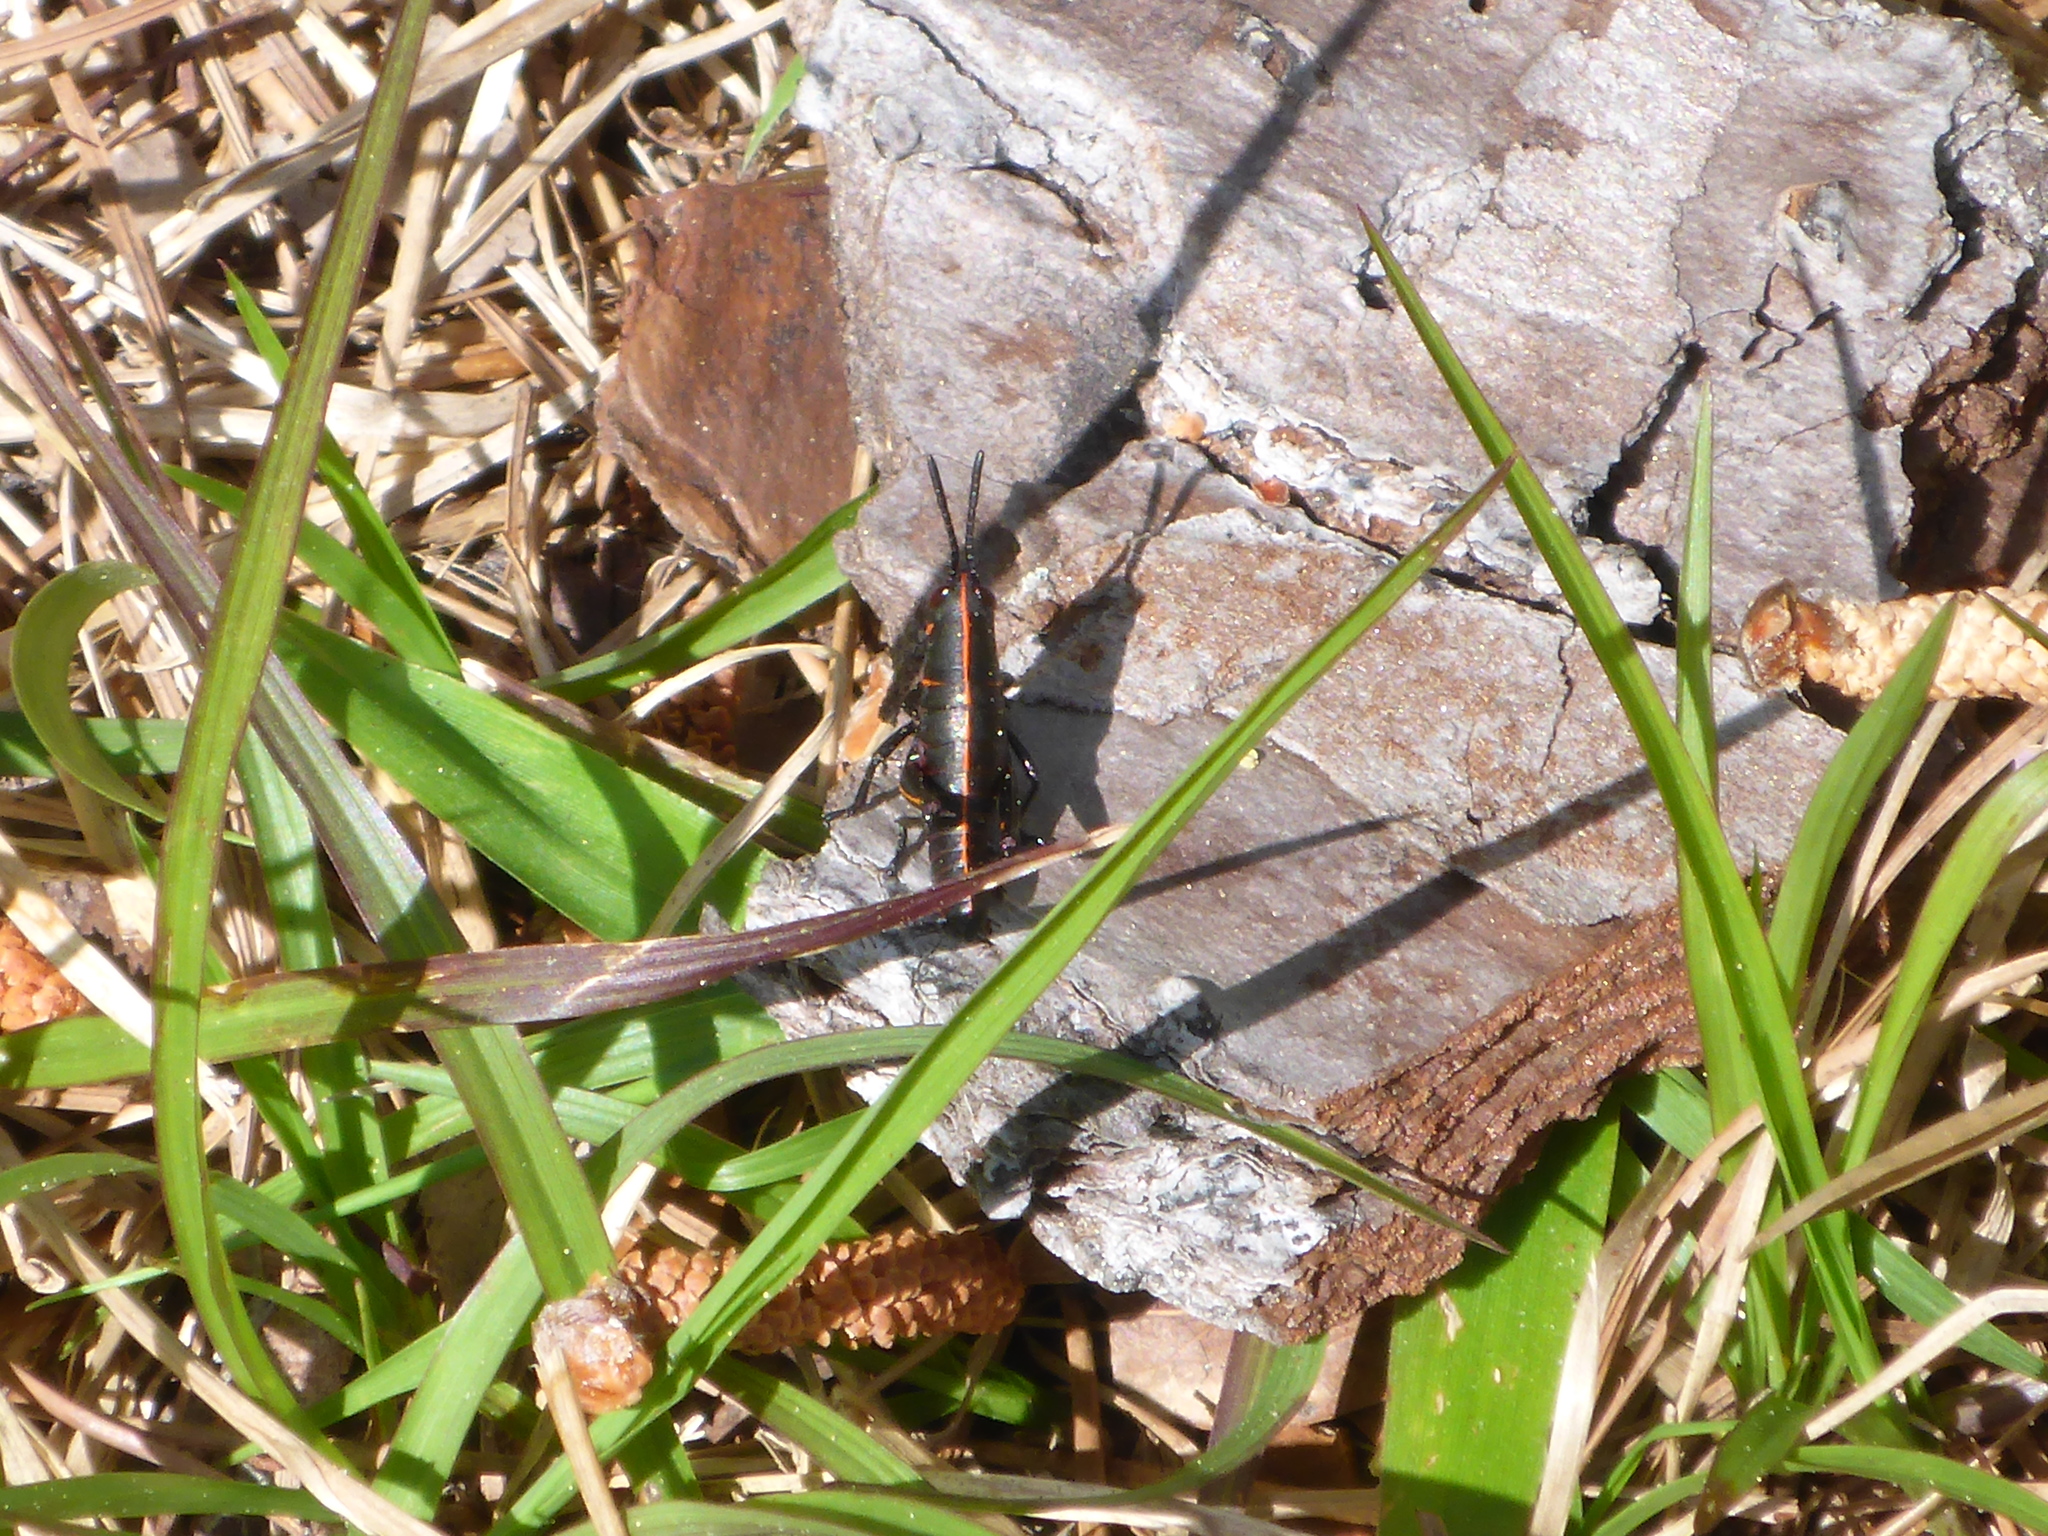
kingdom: Animalia
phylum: Arthropoda
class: Insecta
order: Orthoptera
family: Romaleidae
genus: Romalea
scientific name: Romalea microptera
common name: Eastern lubber grasshopper
